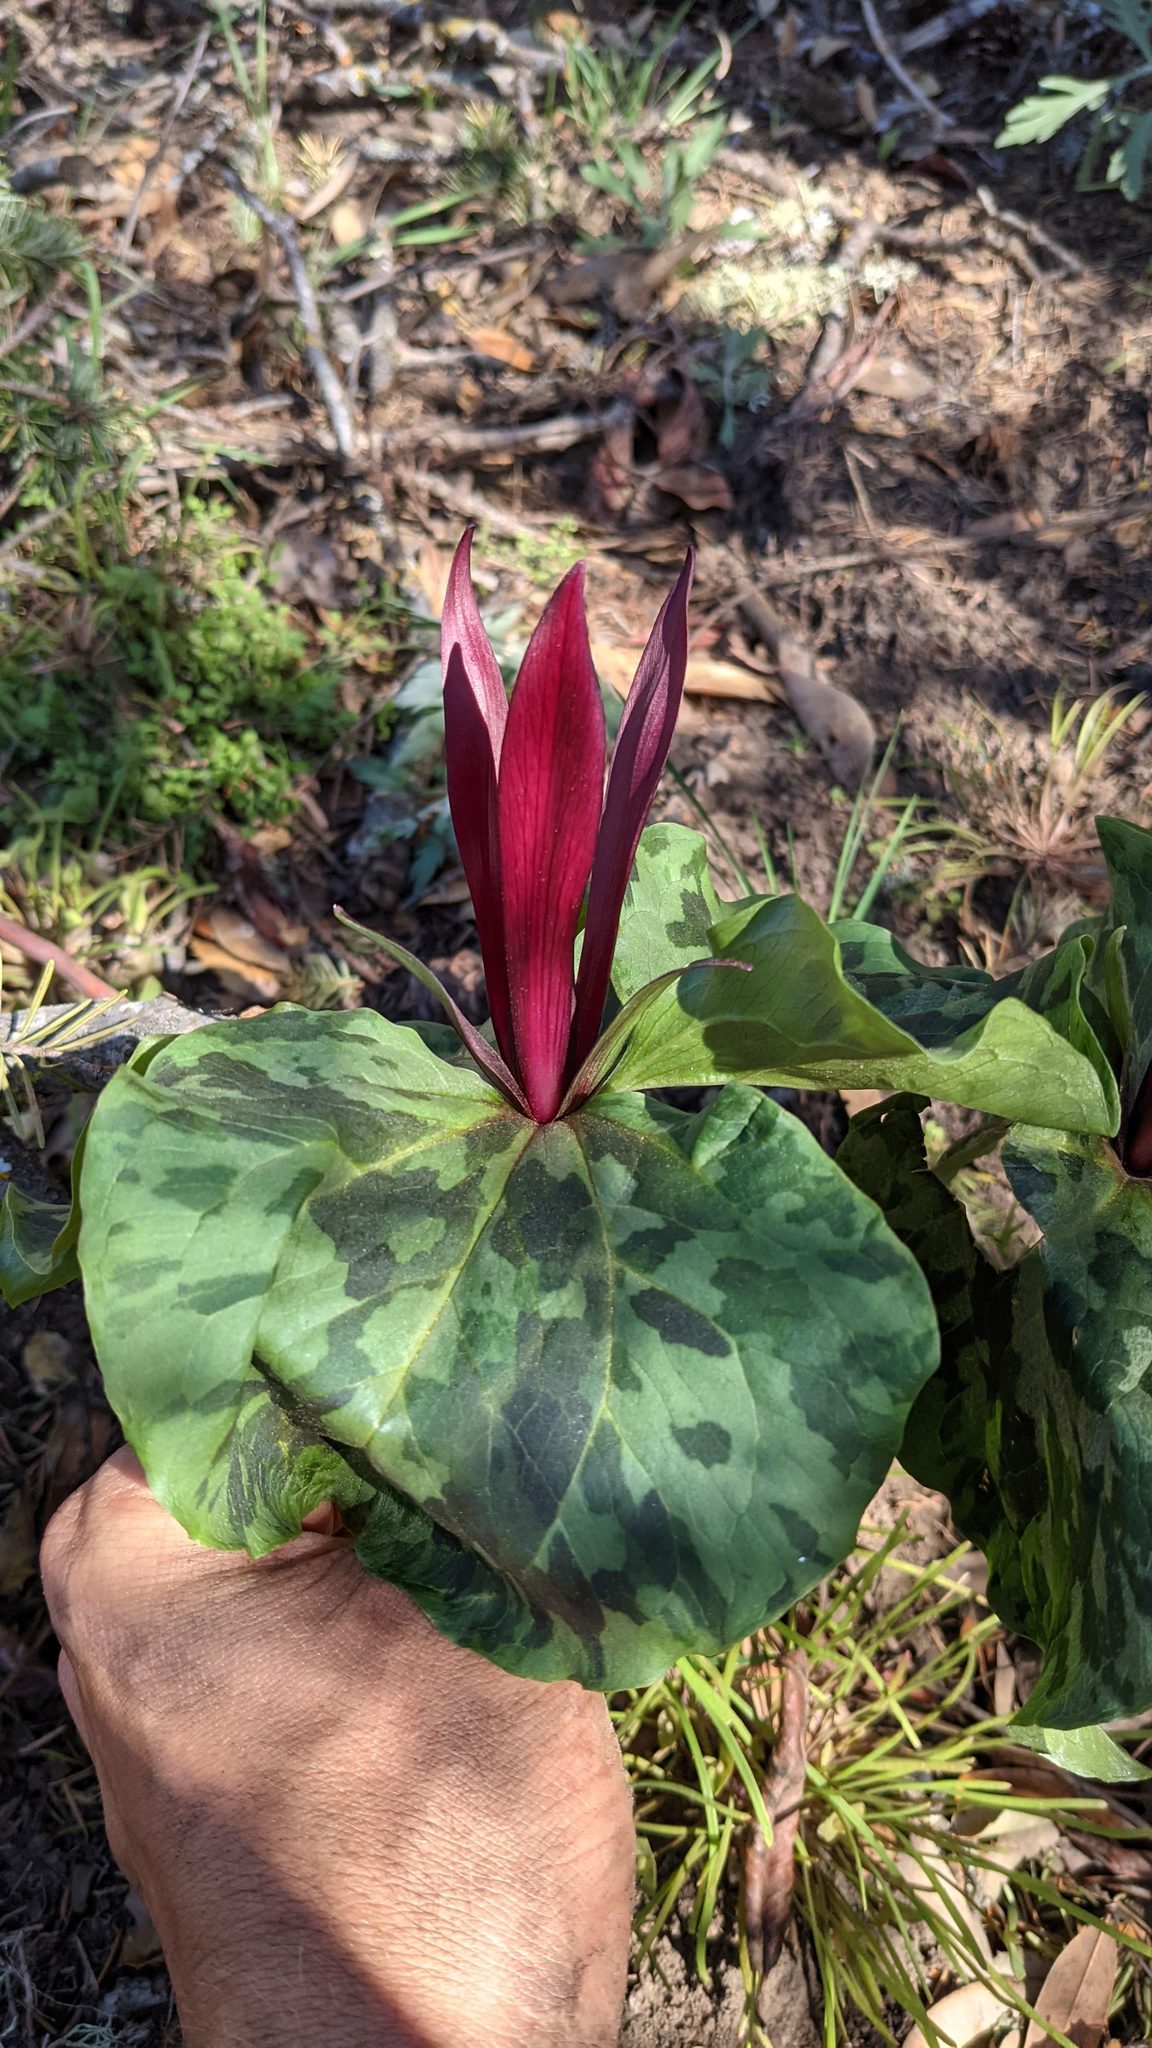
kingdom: Plantae
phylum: Tracheophyta
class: Liliopsida
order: Liliales
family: Melanthiaceae
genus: Trillium
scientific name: Trillium chloropetalum
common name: Giant trillium
